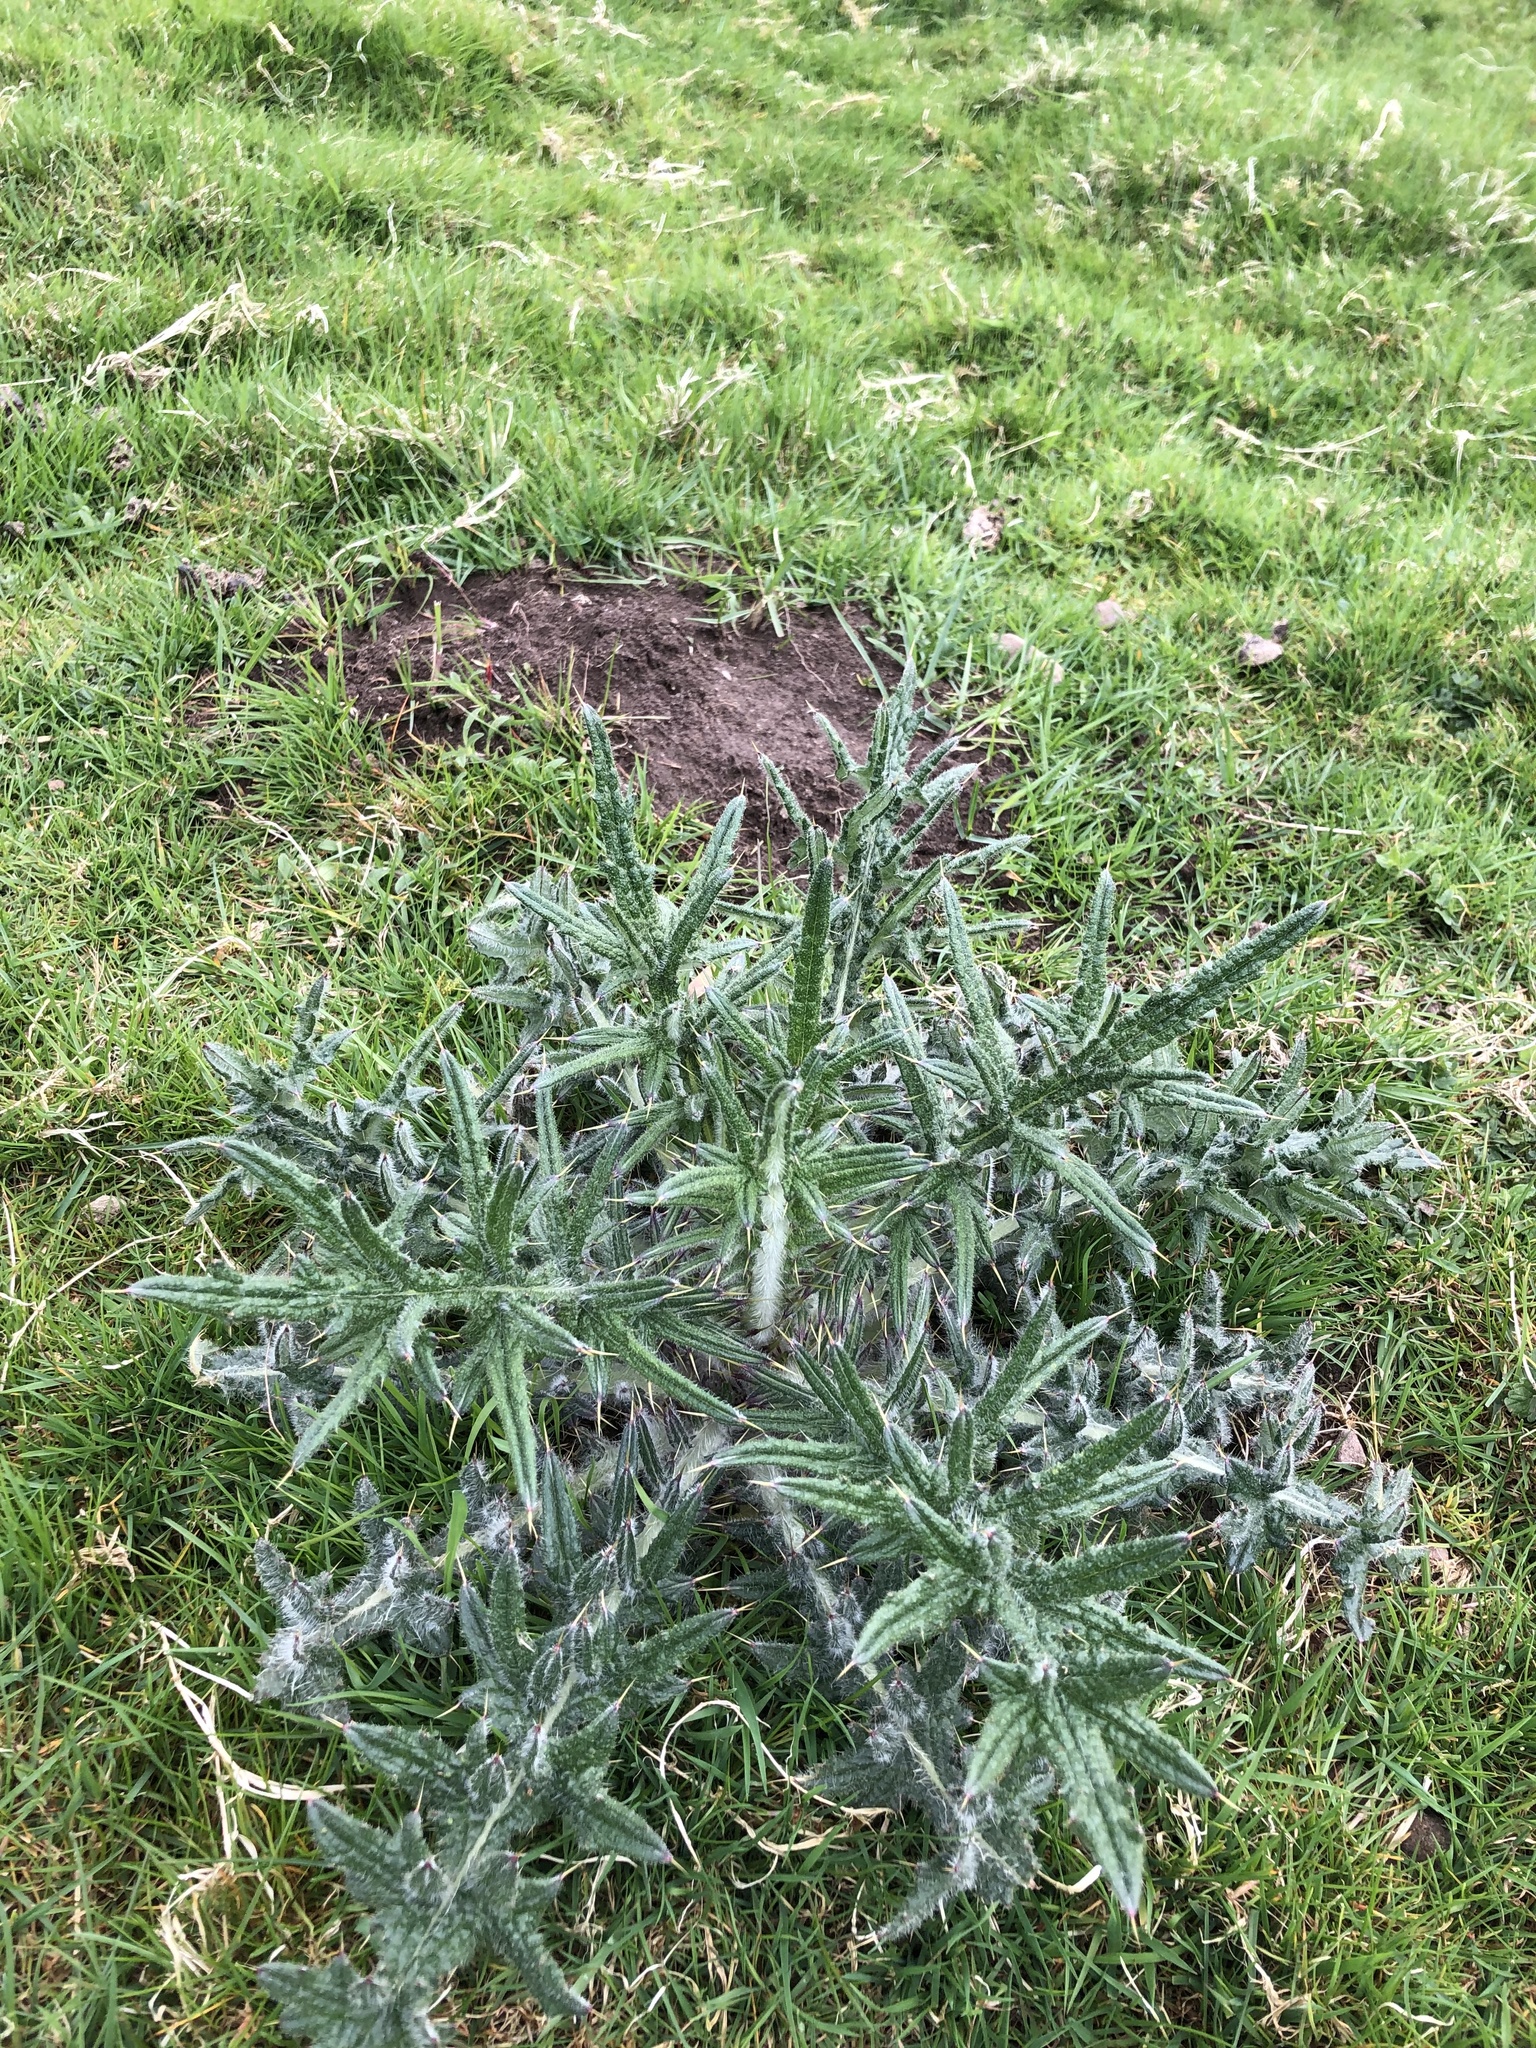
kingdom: Plantae
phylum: Tracheophyta
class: Magnoliopsida
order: Asterales
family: Asteraceae
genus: Cirsium
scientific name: Cirsium vulgare
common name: Bull thistle
